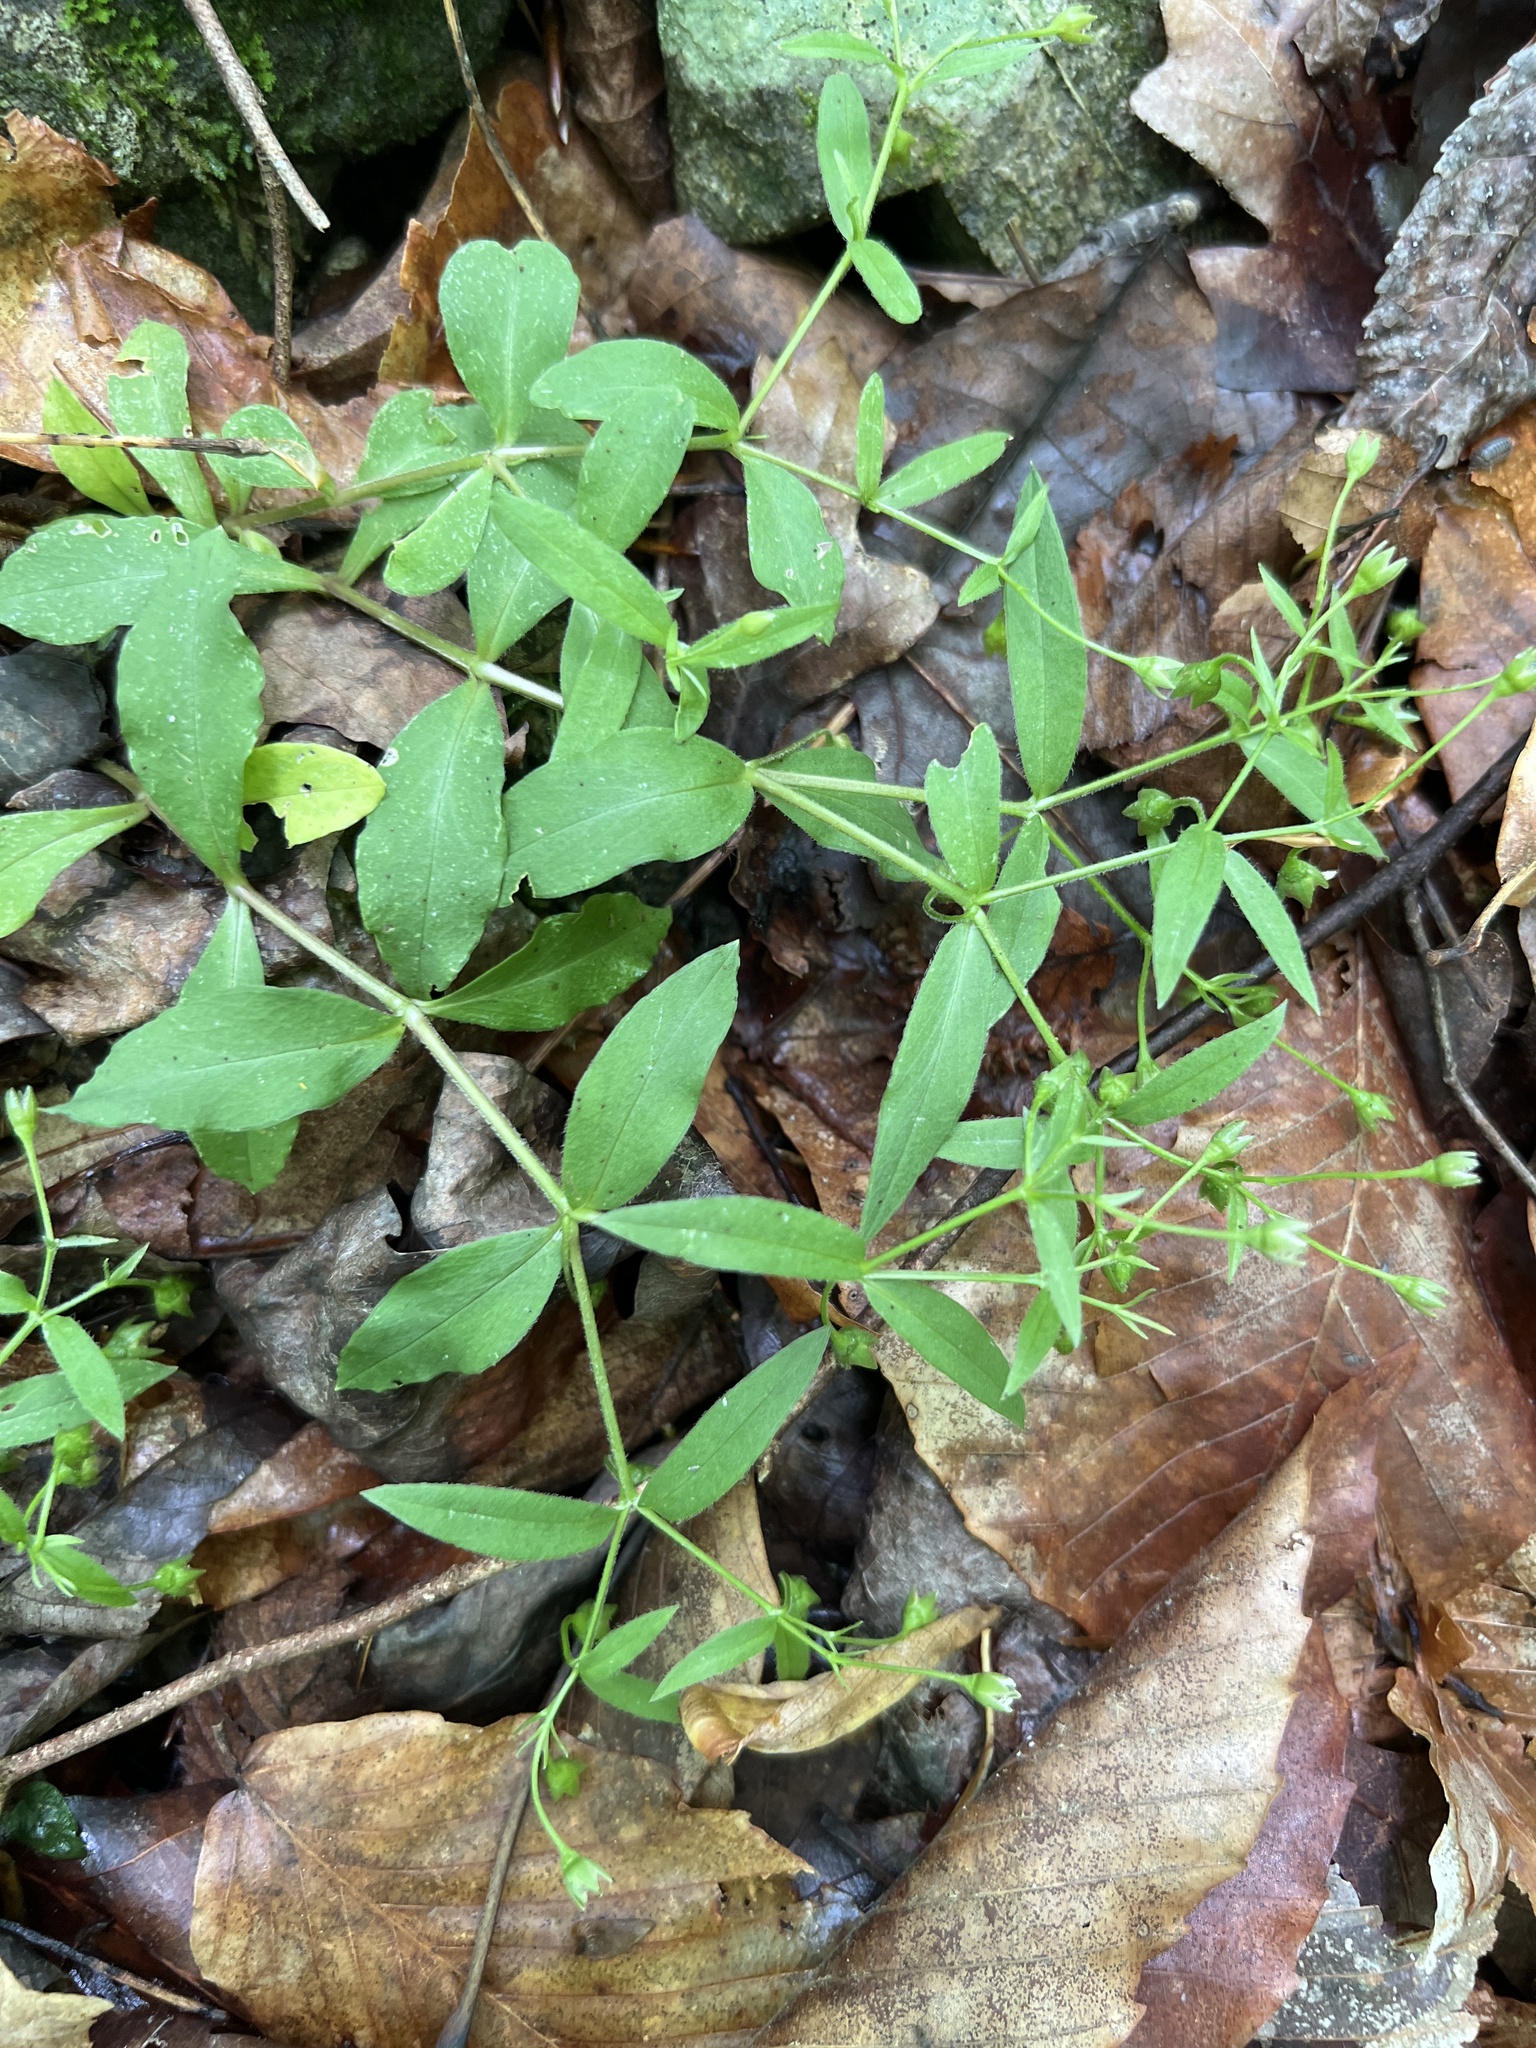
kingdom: Plantae
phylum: Tracheophyta
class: Magnoliopsida
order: Caryophyllales
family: Caryophyllaceae
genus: Stellaria
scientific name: Stellaria pubera
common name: Star chickweed
